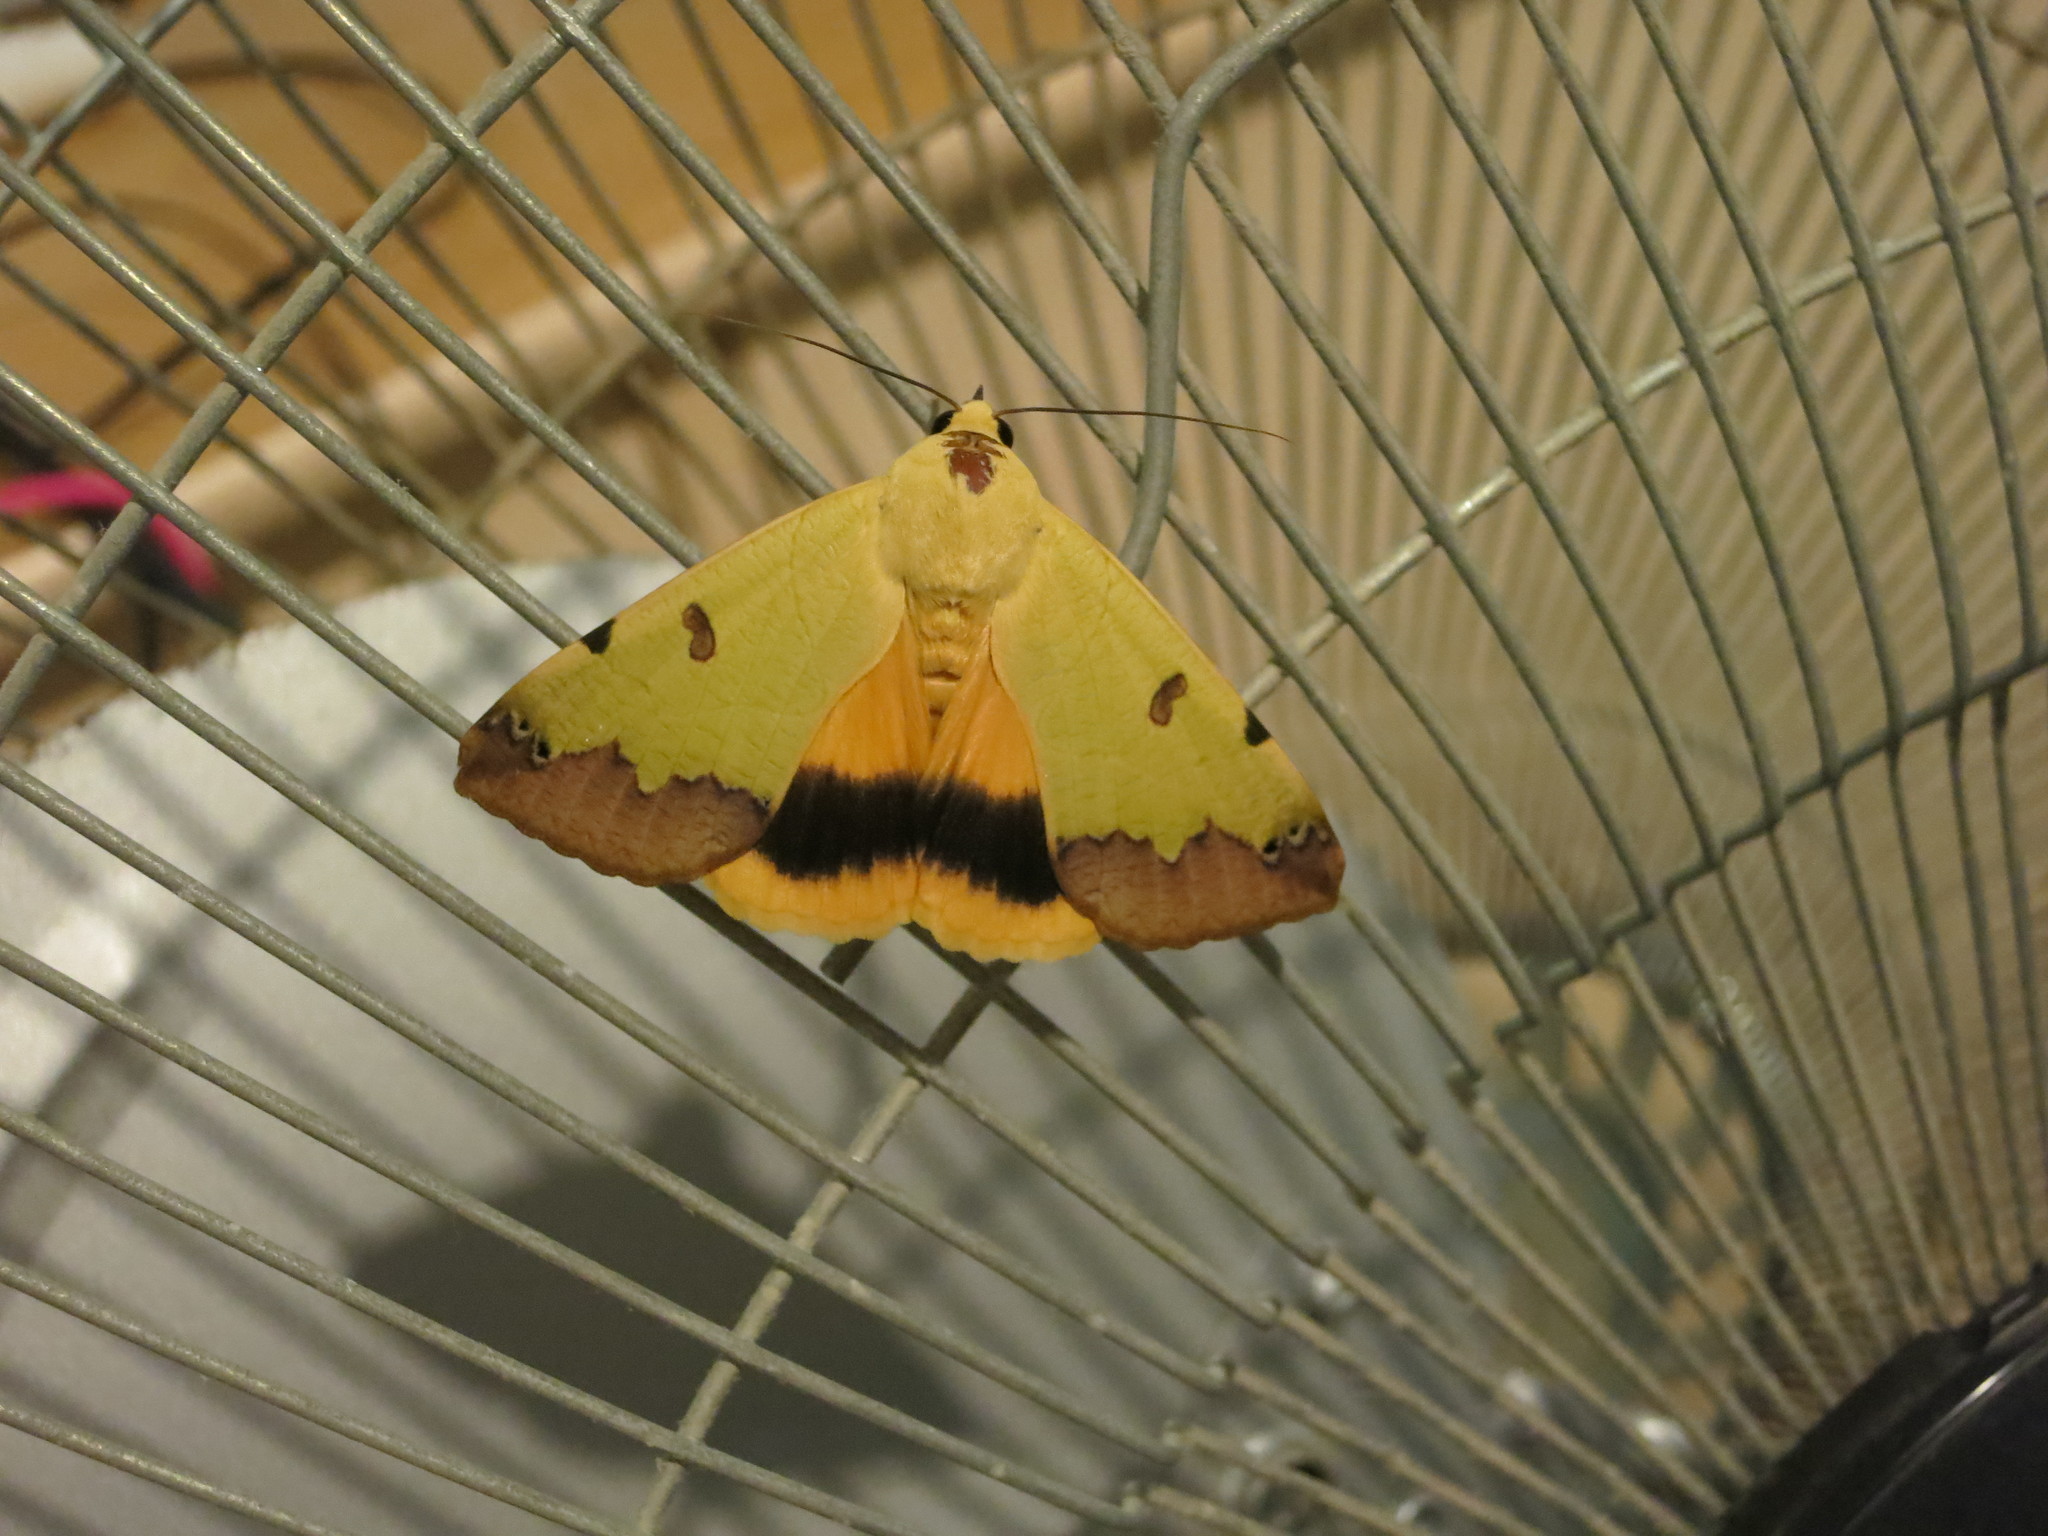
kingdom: Animalia
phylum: Arthropoda
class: Insecta
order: Lepidoptera
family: Erebidae
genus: Ophiusa
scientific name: Ophiusa tirhaca
